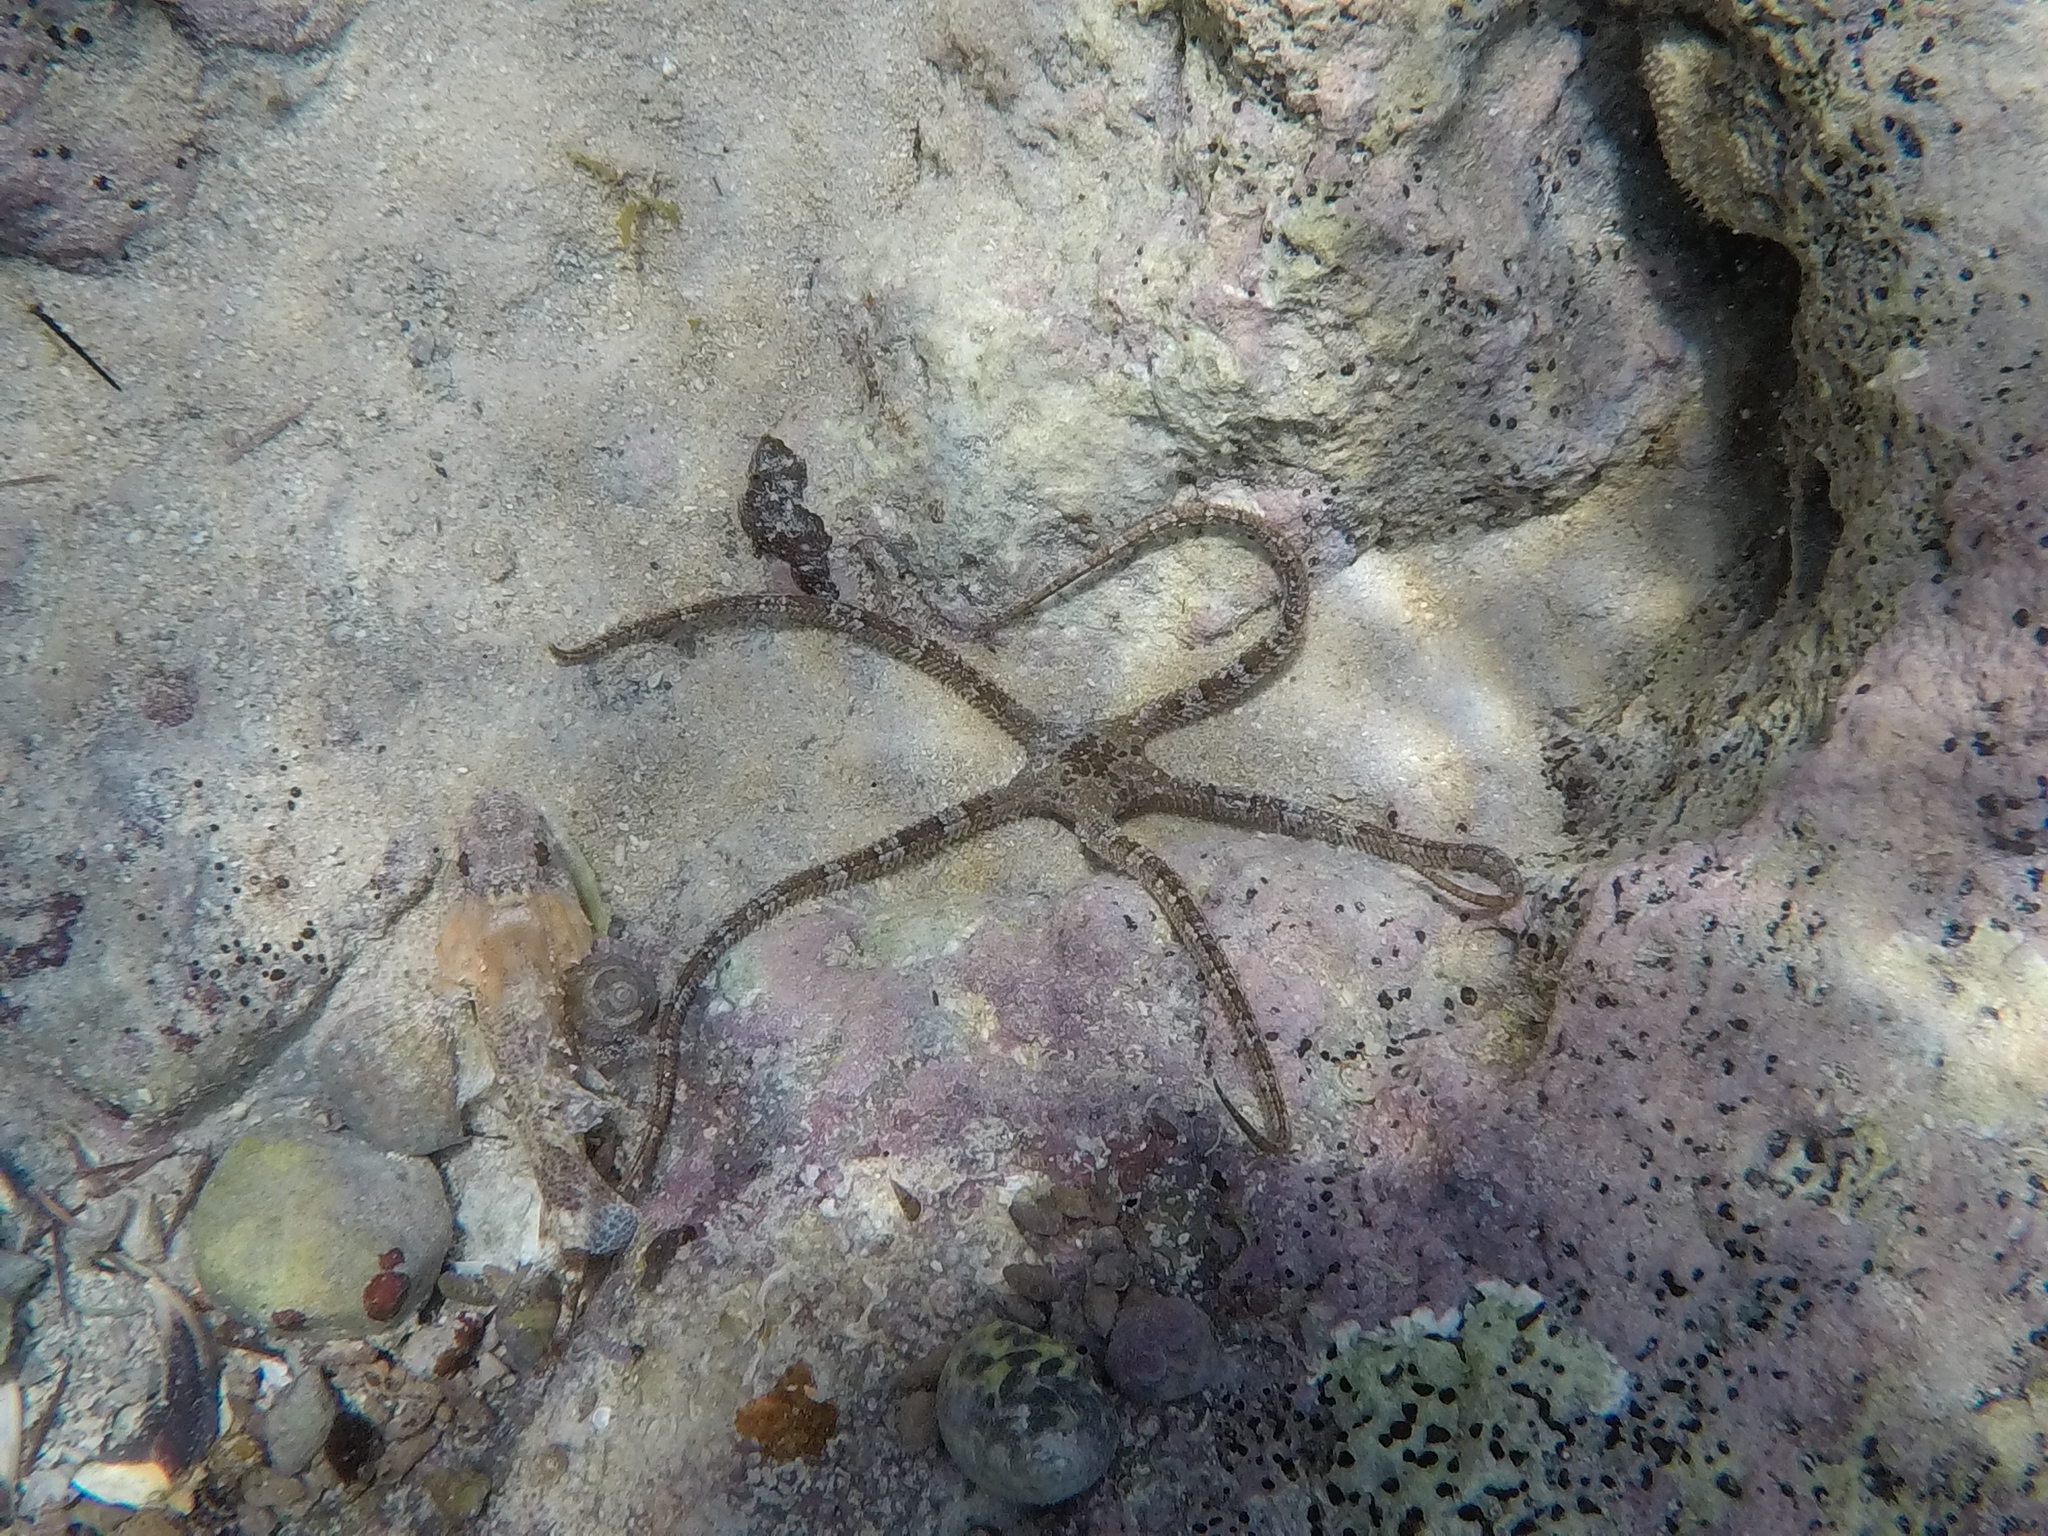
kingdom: Animalia
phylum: Echinodermata
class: Ophiuroidea
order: Ophiacanthida
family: Ophiodermatidae
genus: Ophioderma
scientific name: Ophioderma longicaudum
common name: Smooth brittle-star
